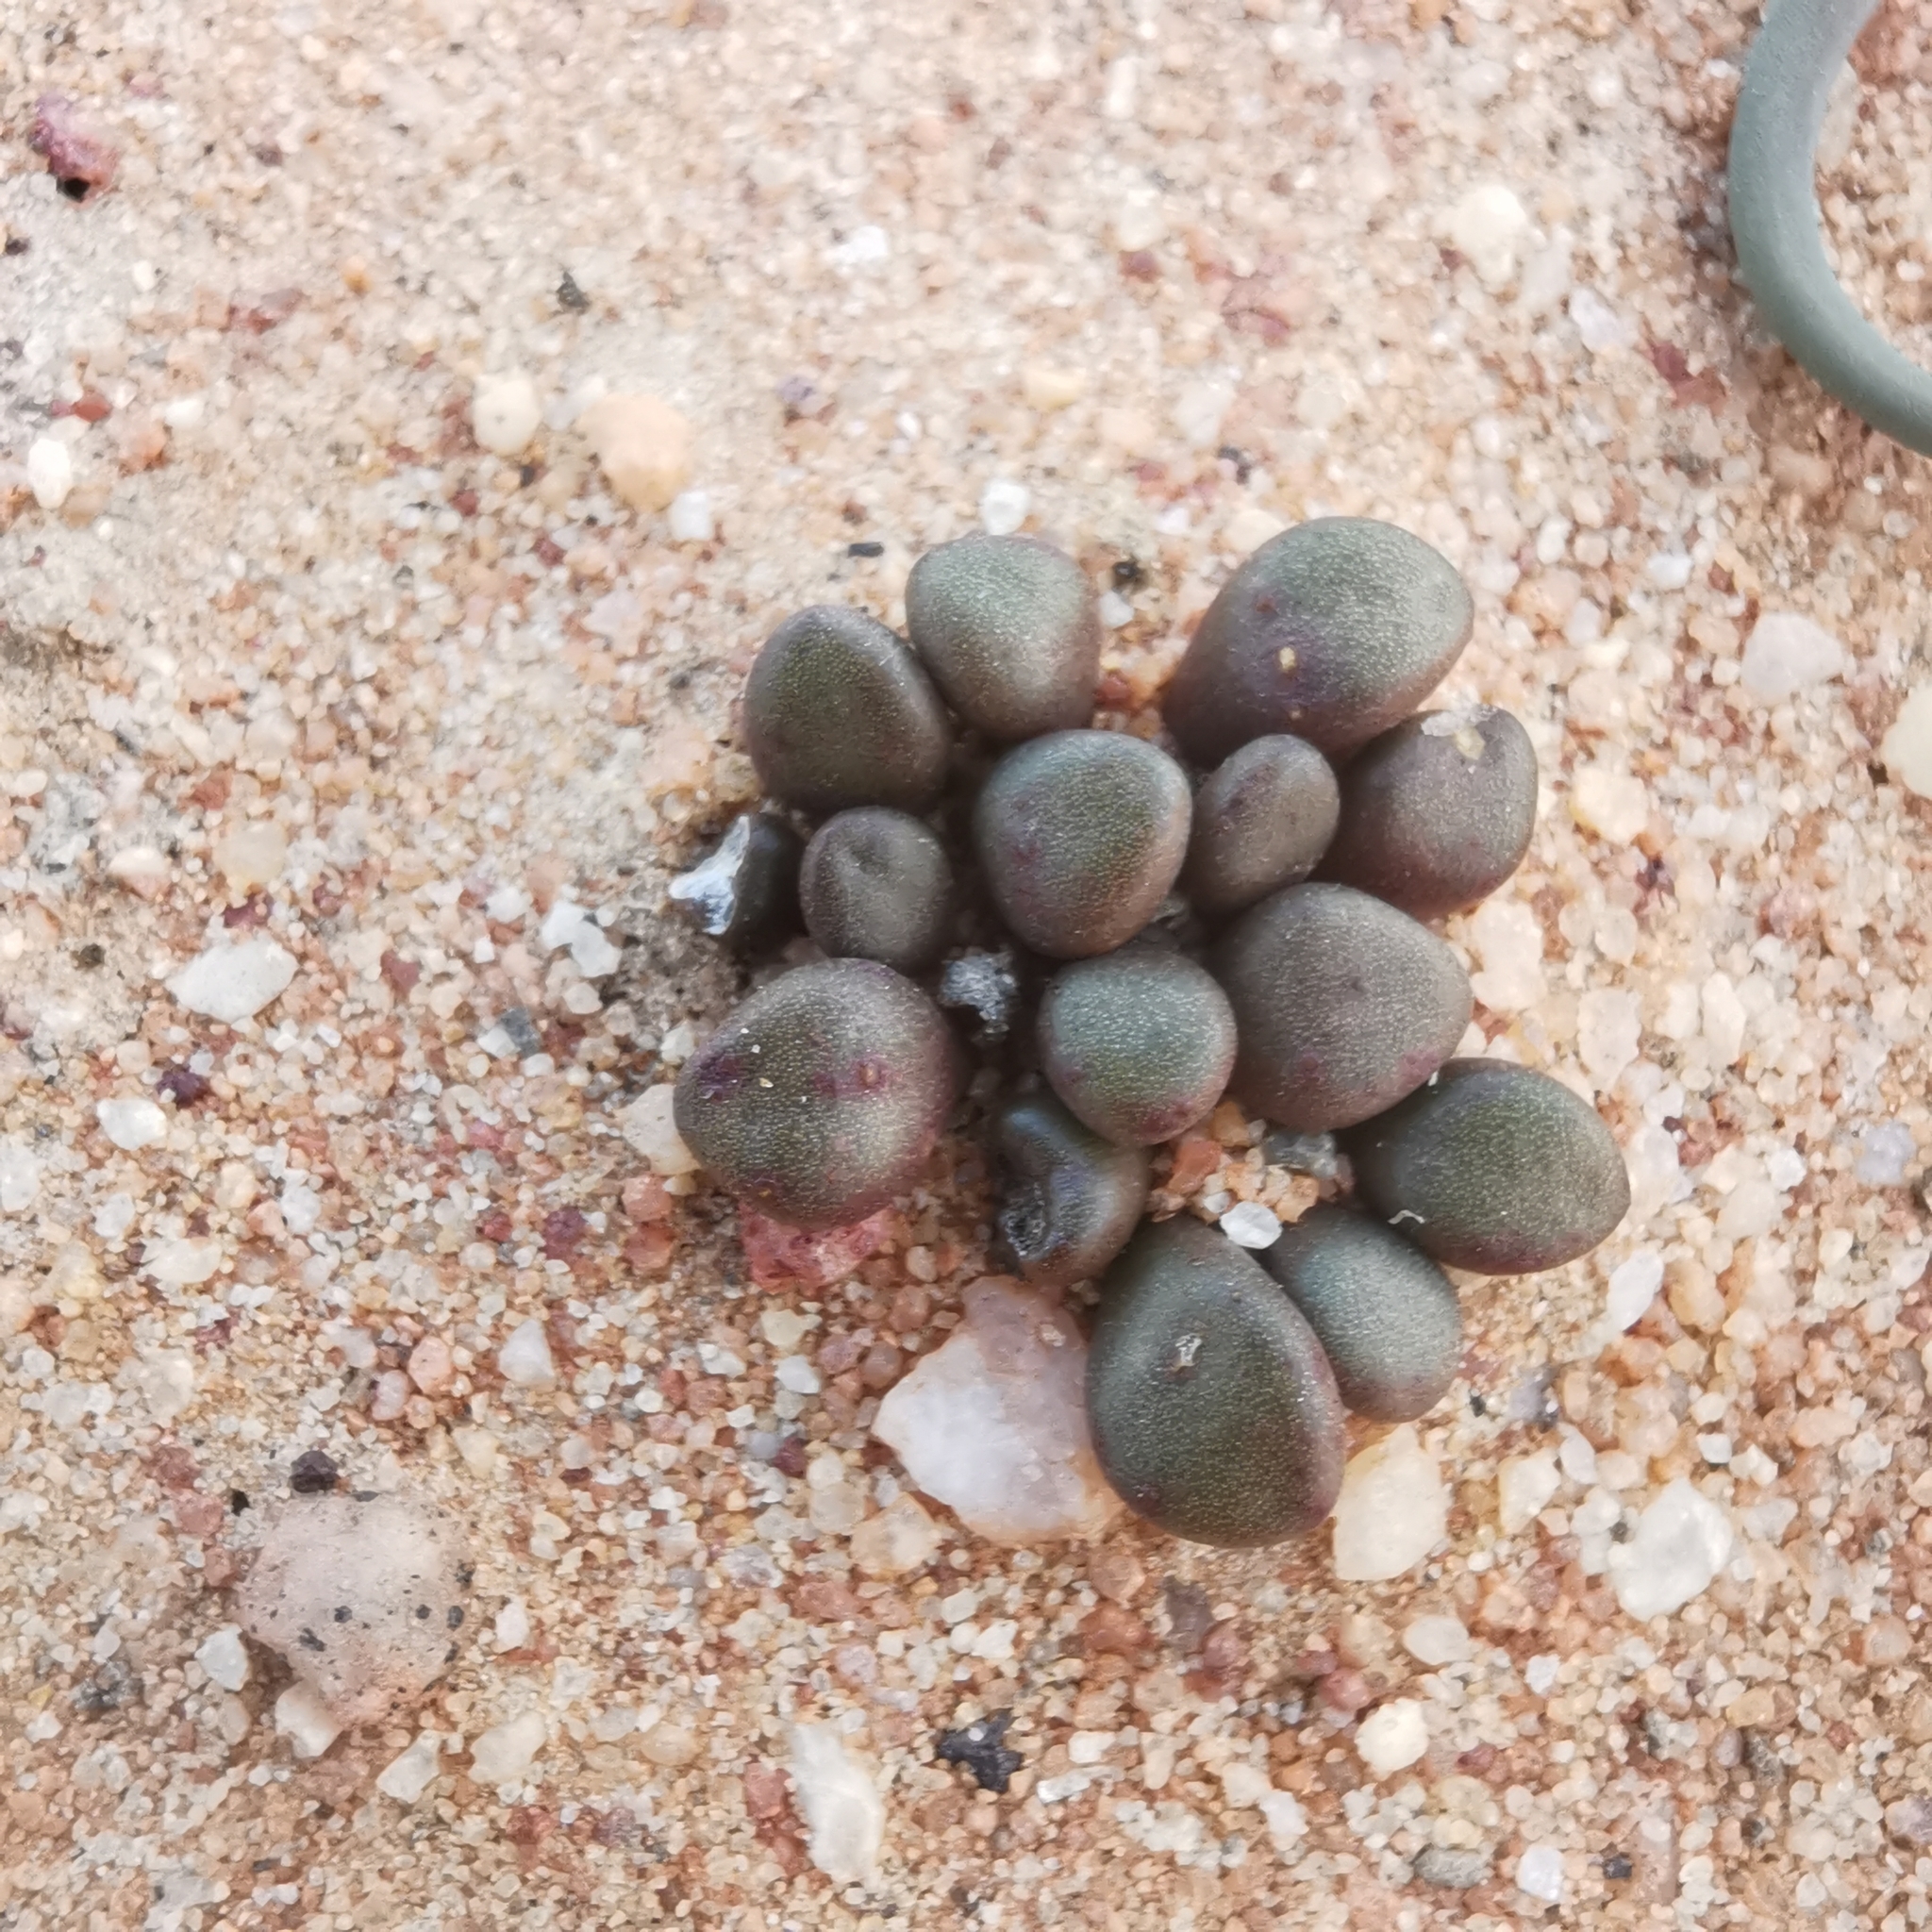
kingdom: Plantae
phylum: Tracheophyta
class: Magnoliopsida
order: Caryophyllales
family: Aizoaceae
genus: Conophytum
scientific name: Conophytum obcordellum
